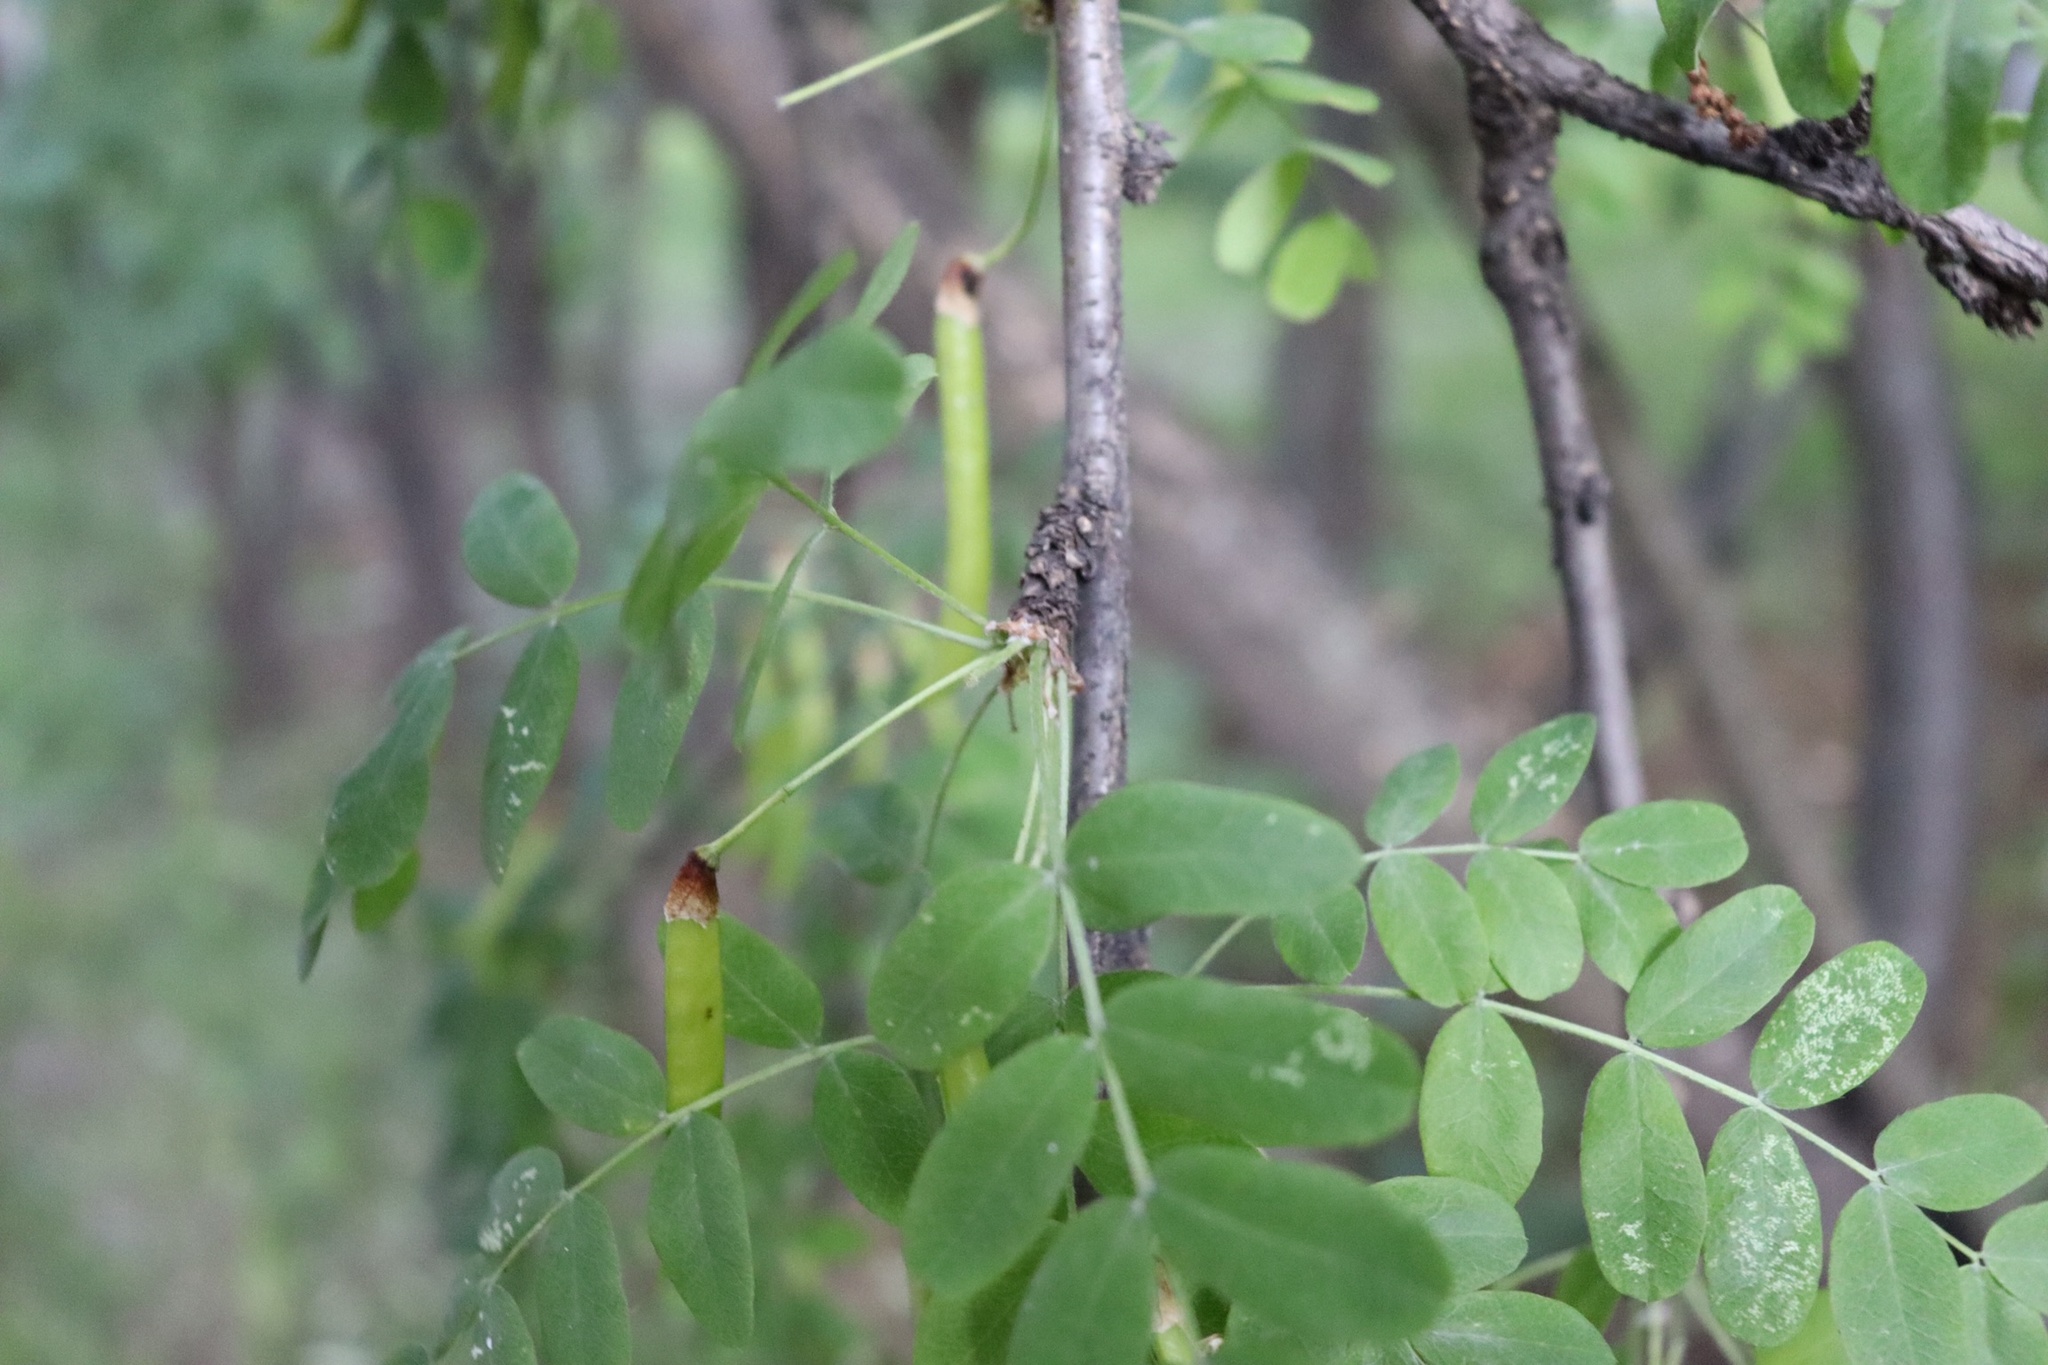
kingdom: Plantae
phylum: Tracheophyta
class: Magnoliopsida
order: Fabales
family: Fabaceae
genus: Caragana
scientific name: Caragana arborescens
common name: Siberian peashrub
